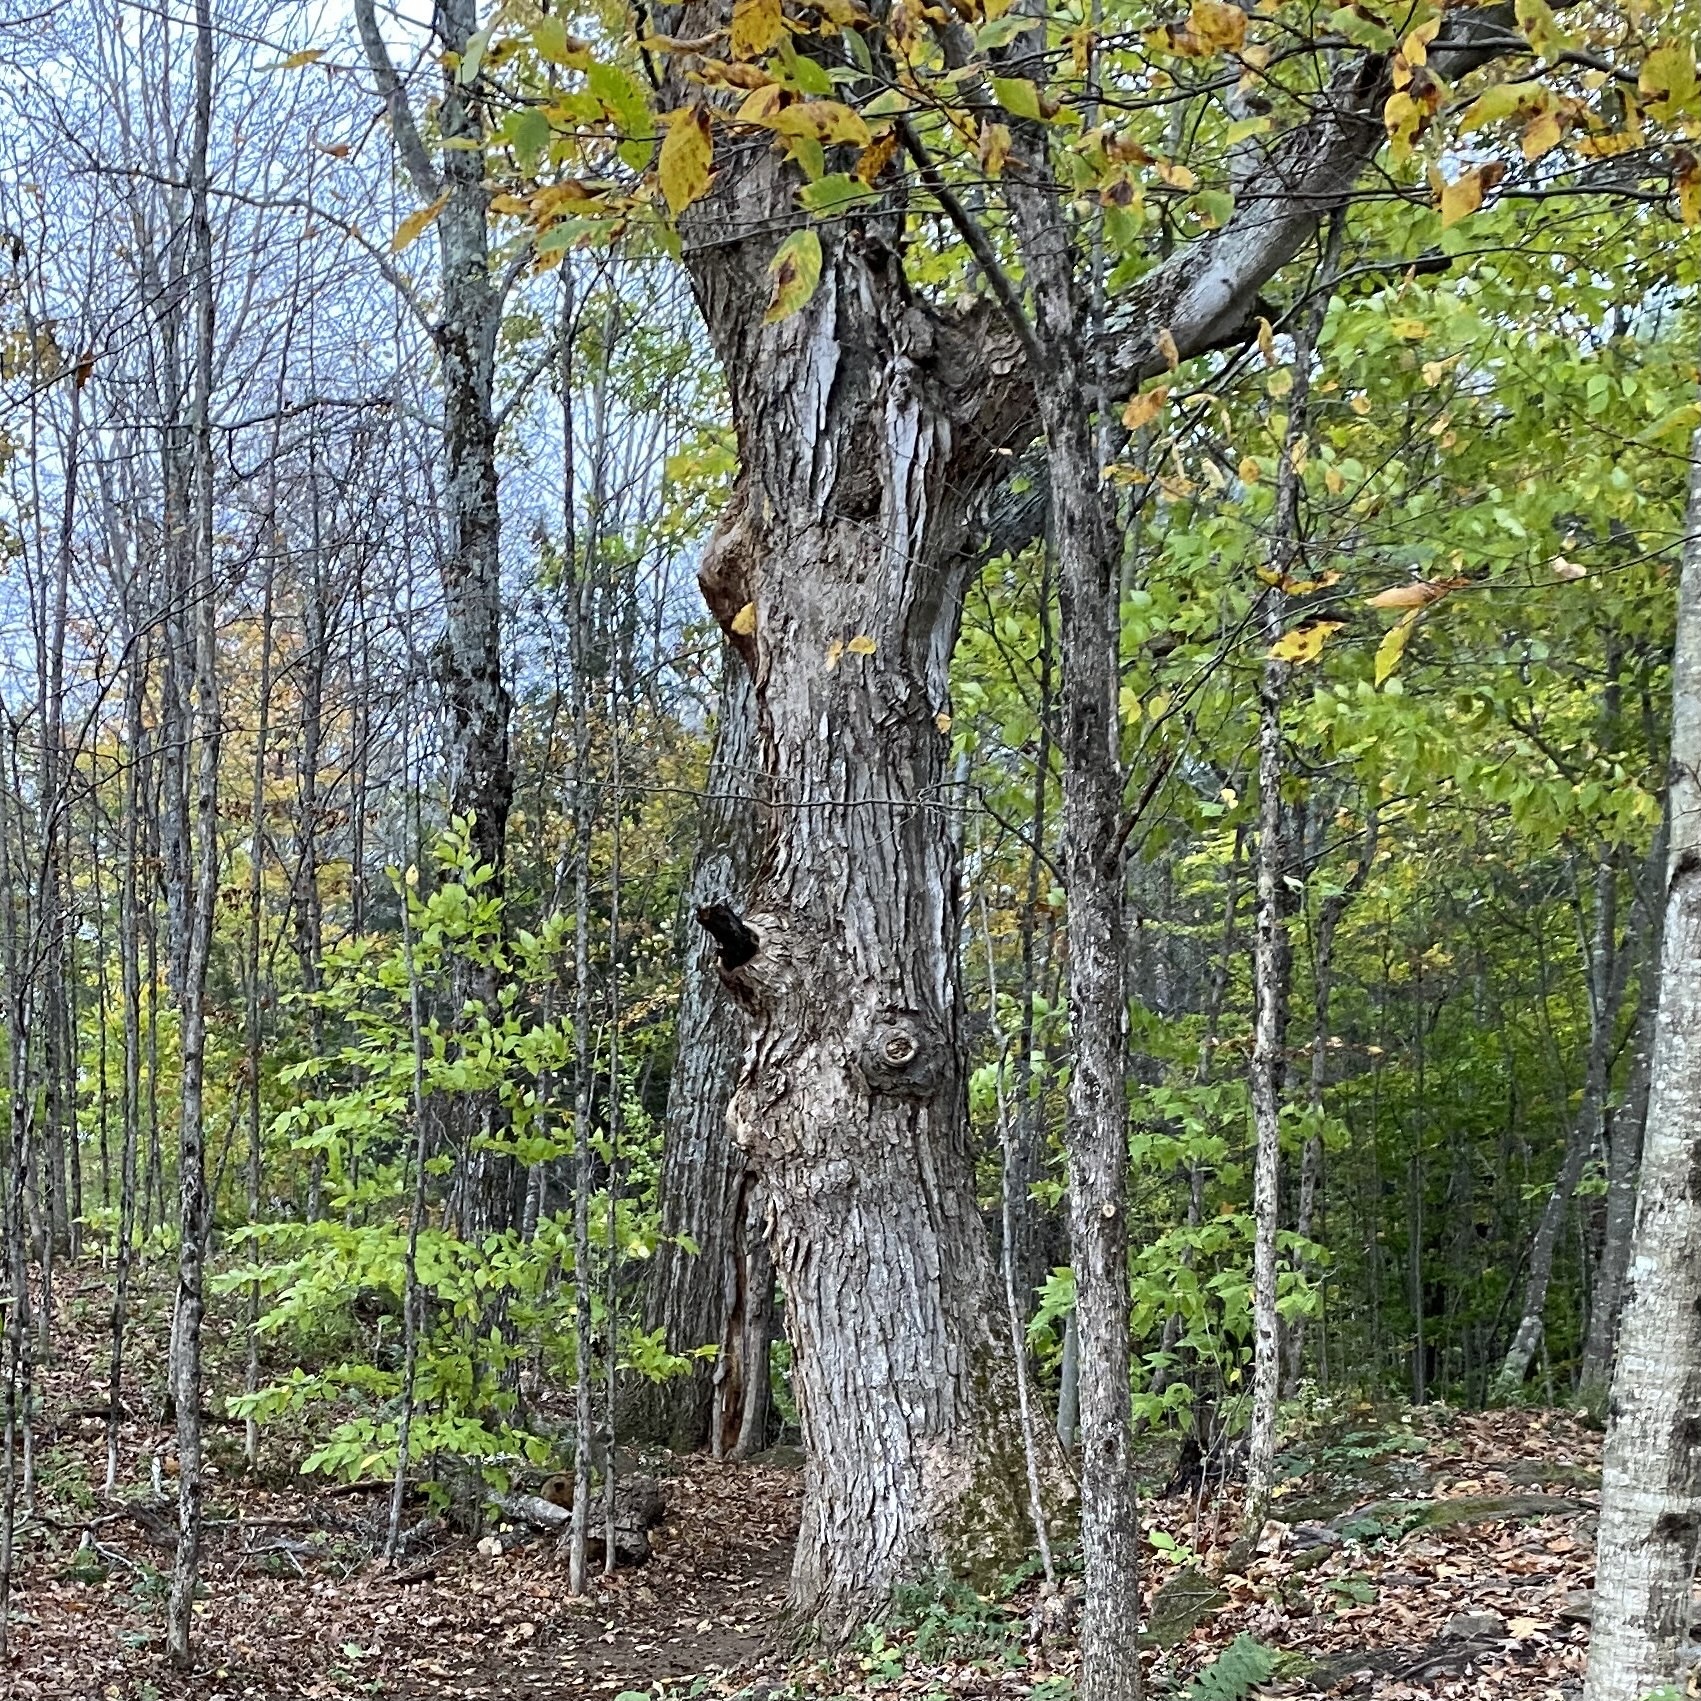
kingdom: Plantae
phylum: Tracheophyta
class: Magnoliopsida
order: Sapindales
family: Sapindaceae
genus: Acer
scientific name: Acer saccharum
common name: Sugar maple
